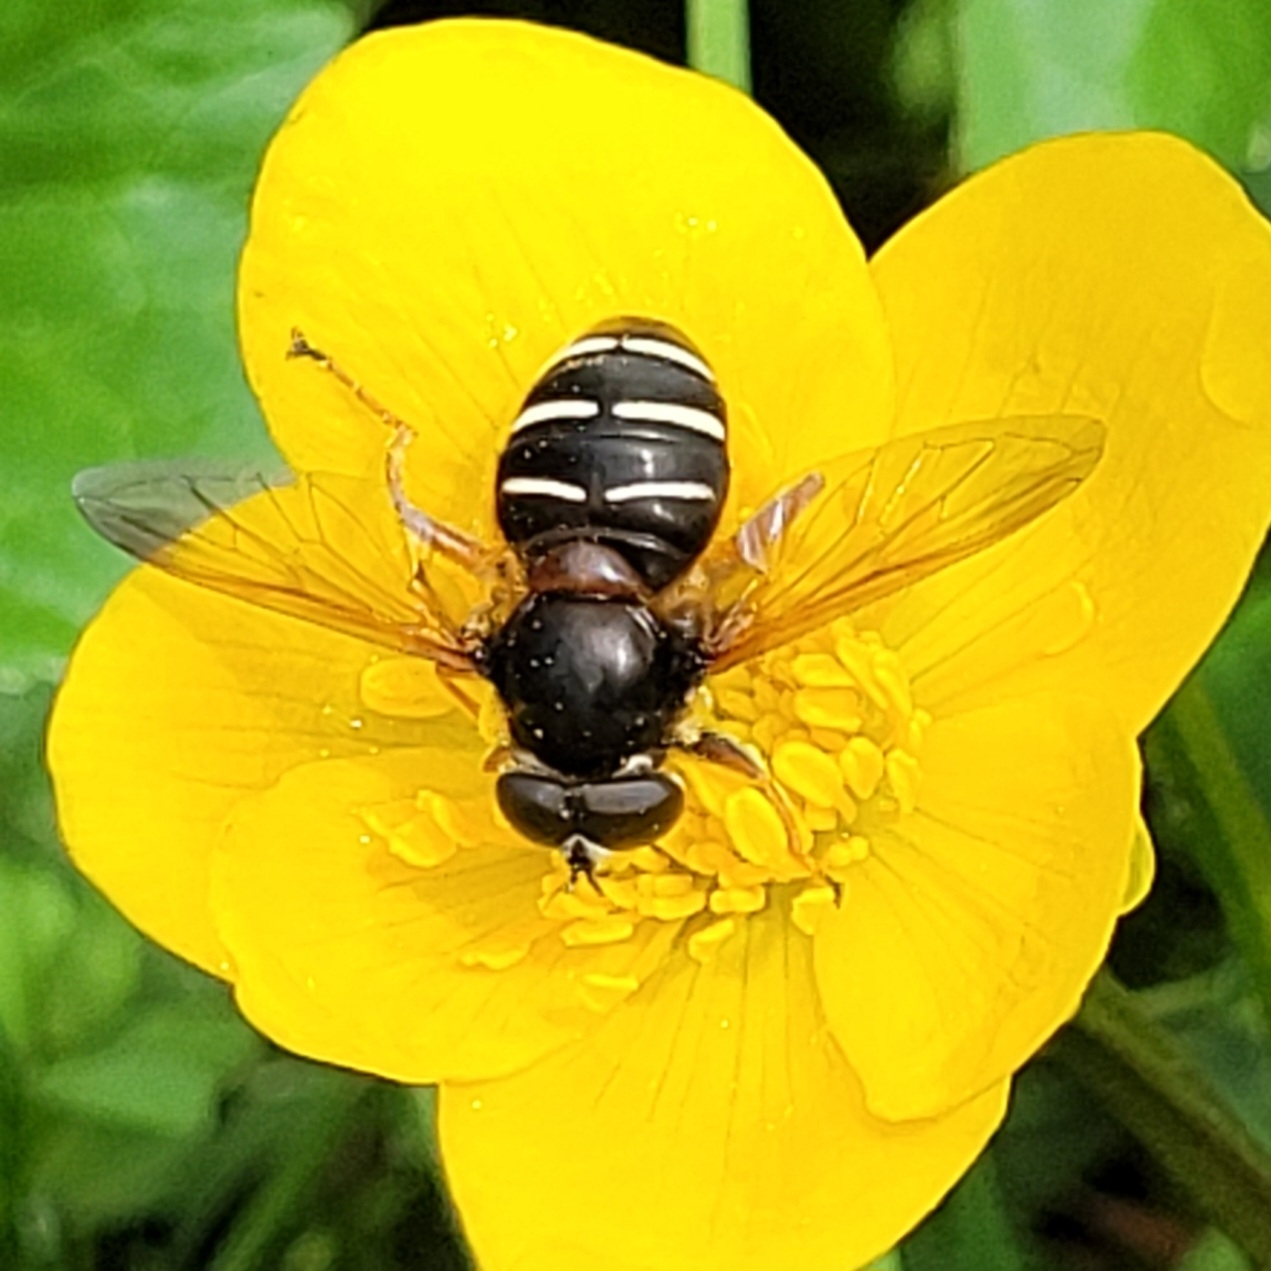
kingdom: Animalia
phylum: Arthropoda
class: Insecta
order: Diptera
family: Syrphidae
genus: Sericomyia
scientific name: Sericomyia lappona
